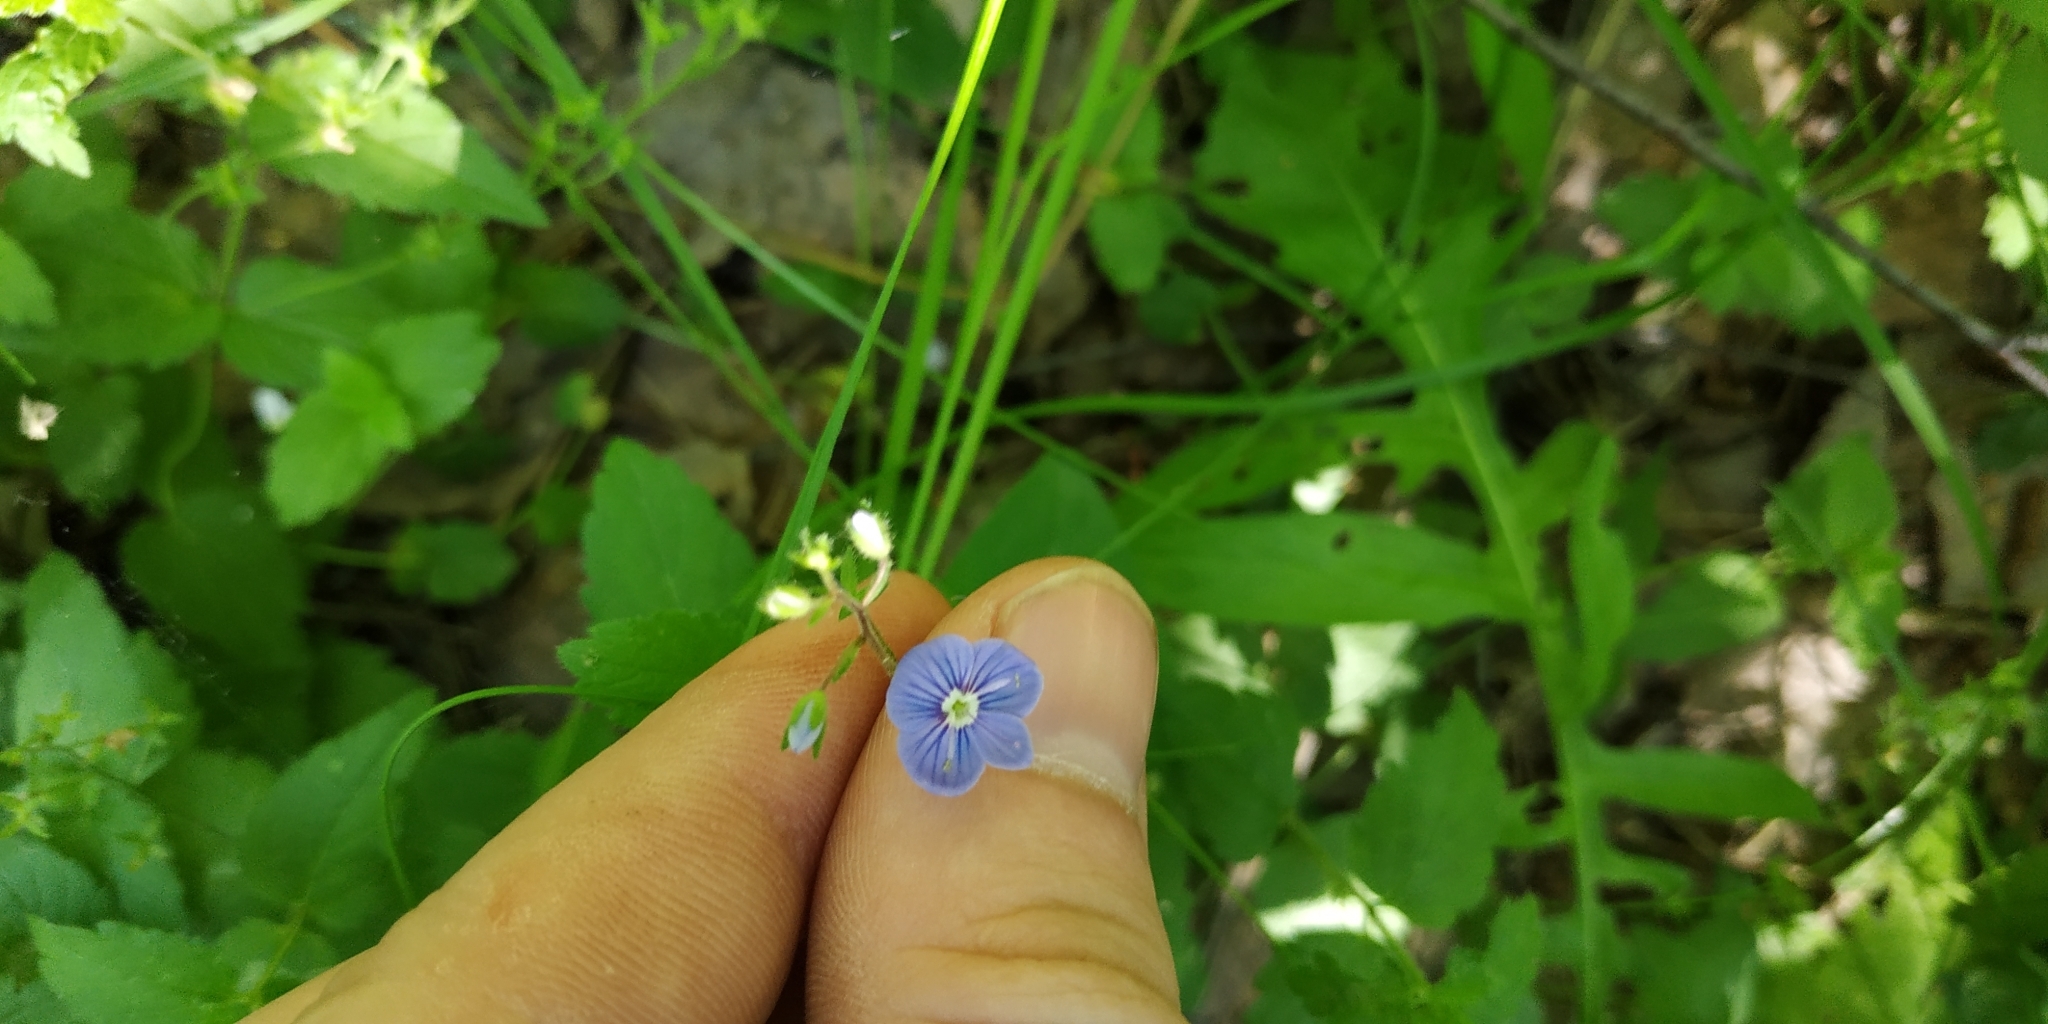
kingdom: Plantae
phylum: Tracheophyta
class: Magnoliopsida
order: Lamiales
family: Plantaginaceae
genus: Veronica
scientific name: Veronica chamaedrys
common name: Germander speedwell
